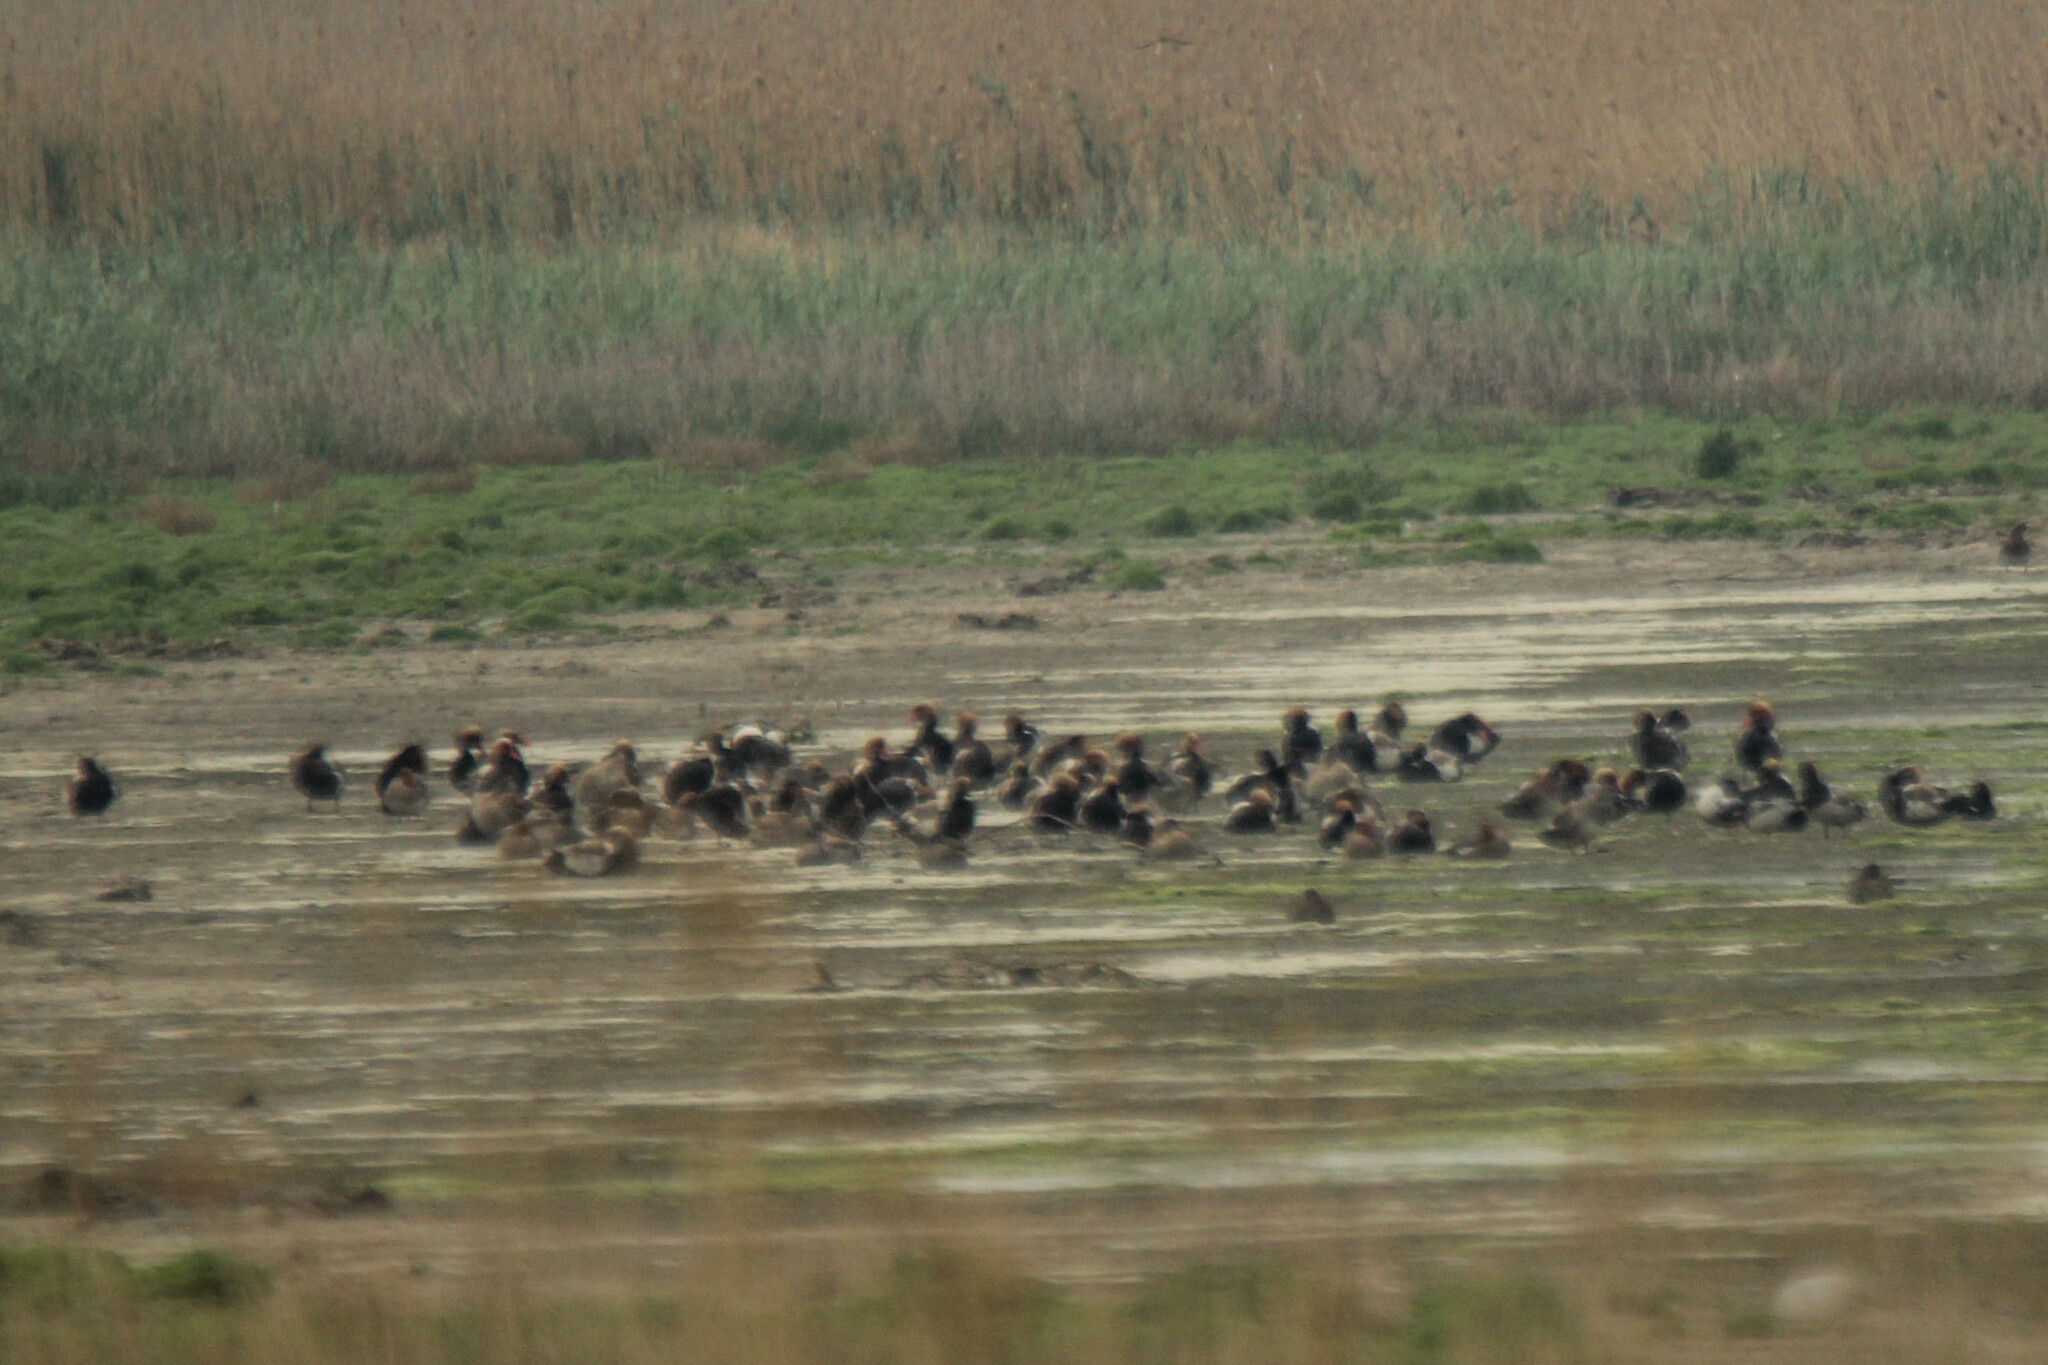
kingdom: Animalia
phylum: Chordata
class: Aves
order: Anseriformes
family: Anatidae
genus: Netta
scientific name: Netta rufina
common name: Red-crested pochard
